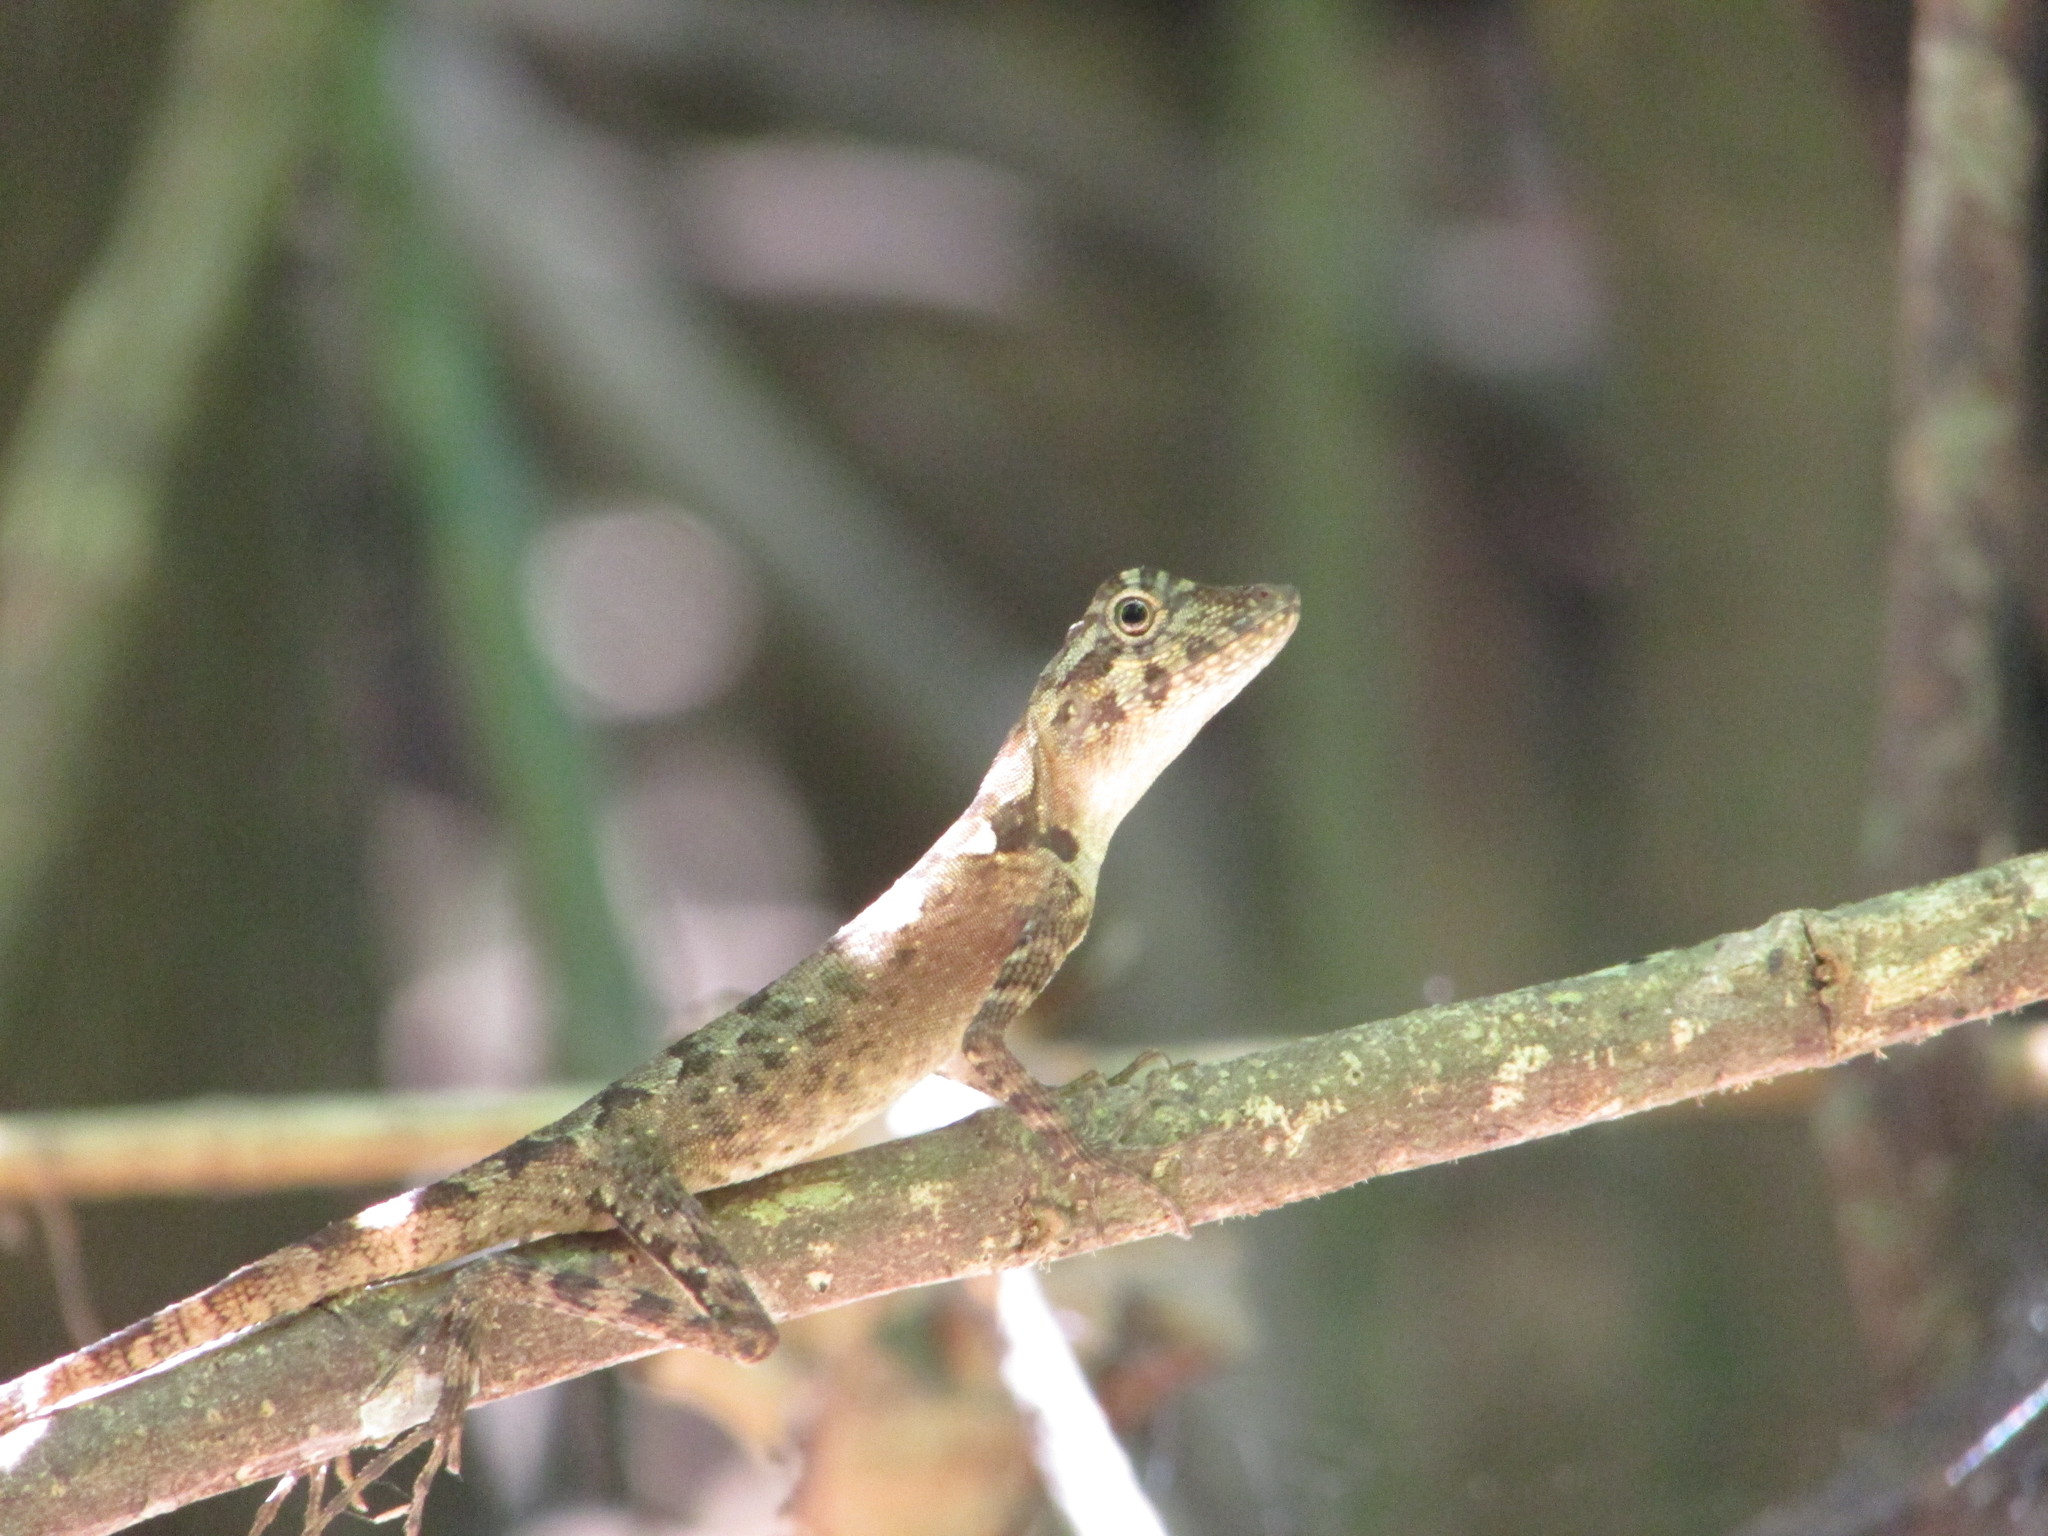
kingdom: Animalia
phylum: Chordata
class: Squamata
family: Agamidae
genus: Coryphophylax
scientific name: Coryphophylax subcristatus
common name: Short-crested bay island forest lizard
